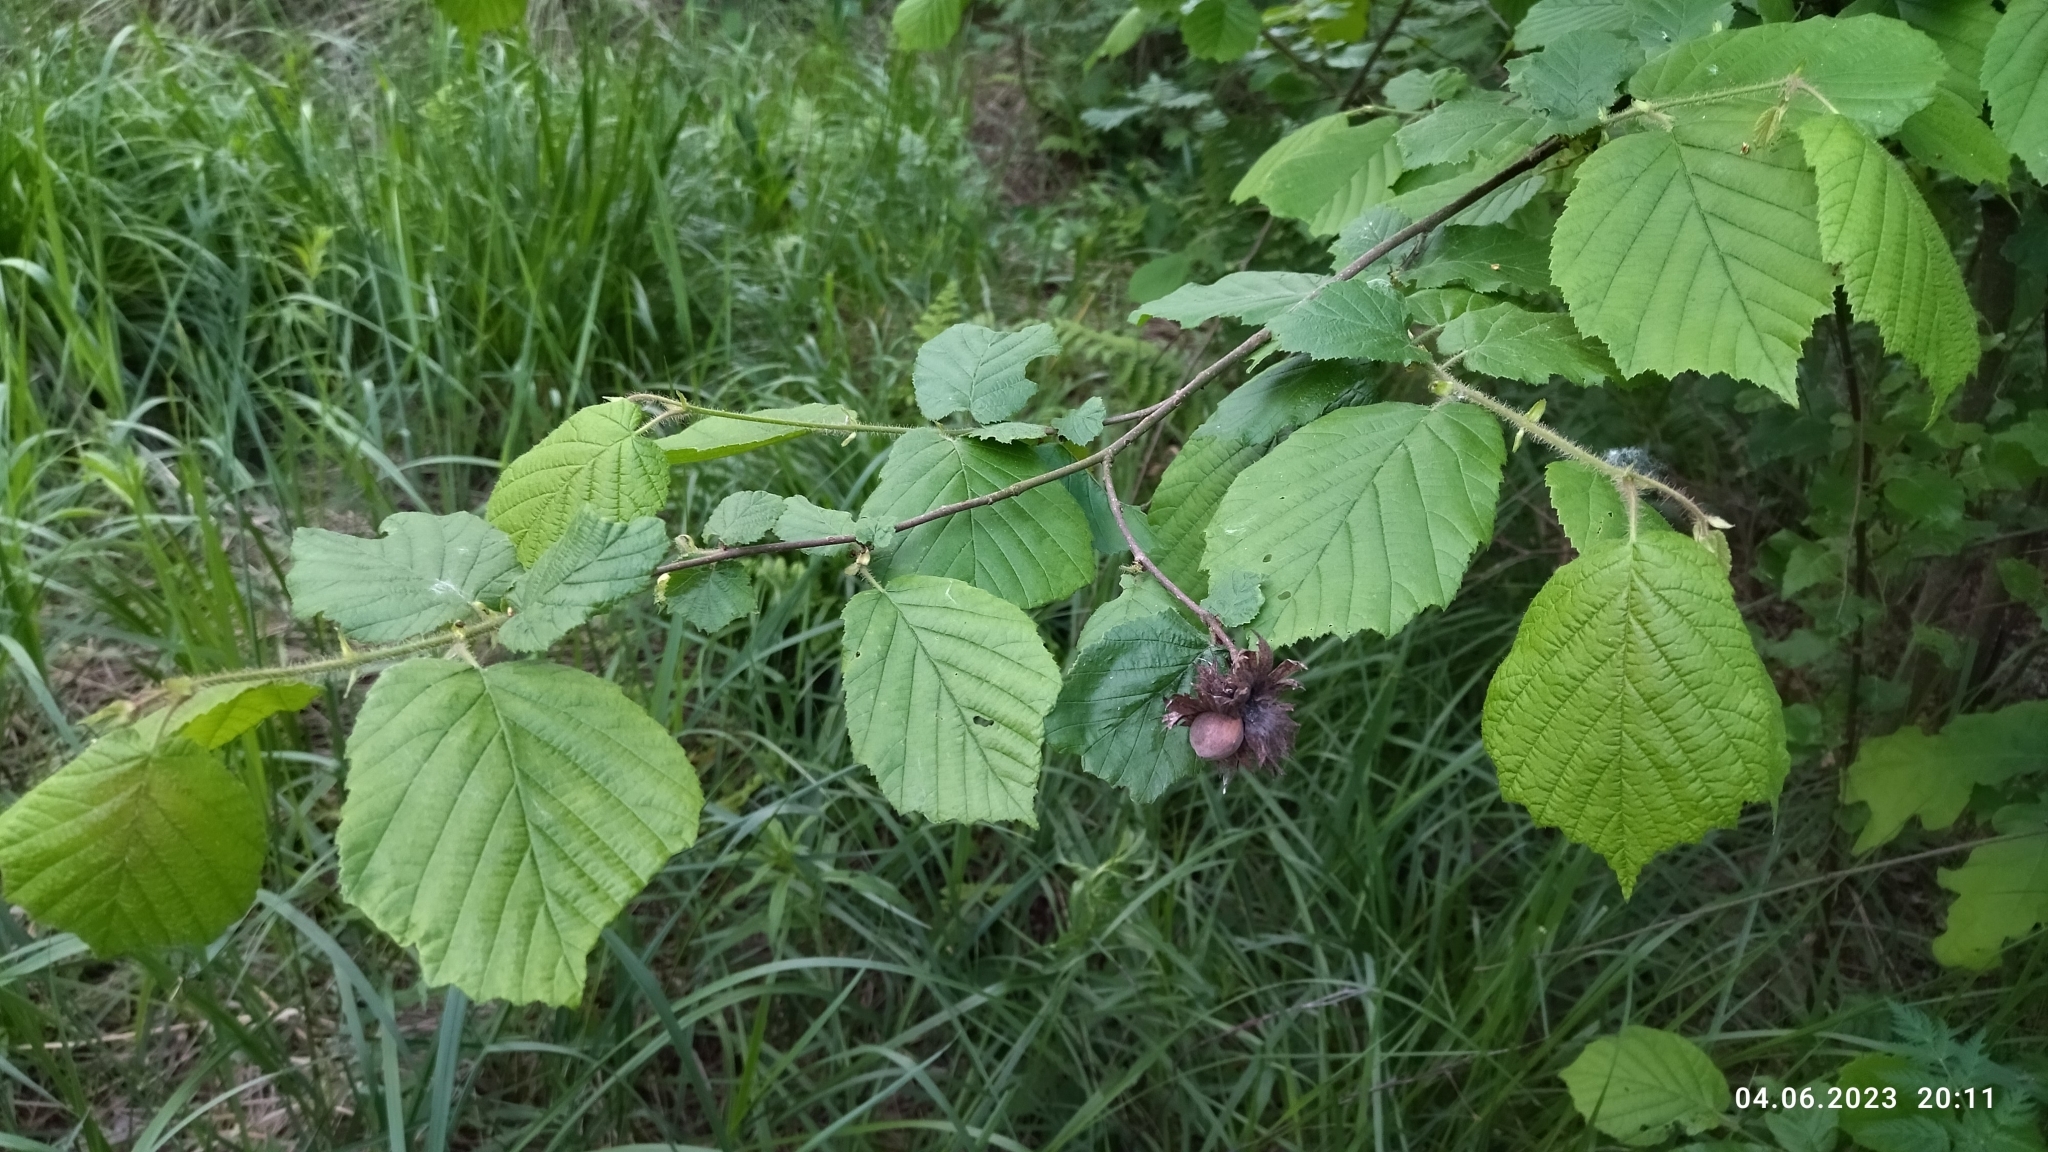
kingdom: Plantae
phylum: Tracheophyta
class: Magnoliopsida
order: Fagales
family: Betulaceae
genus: Corylus
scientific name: Corylus avellana
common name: European hazel
